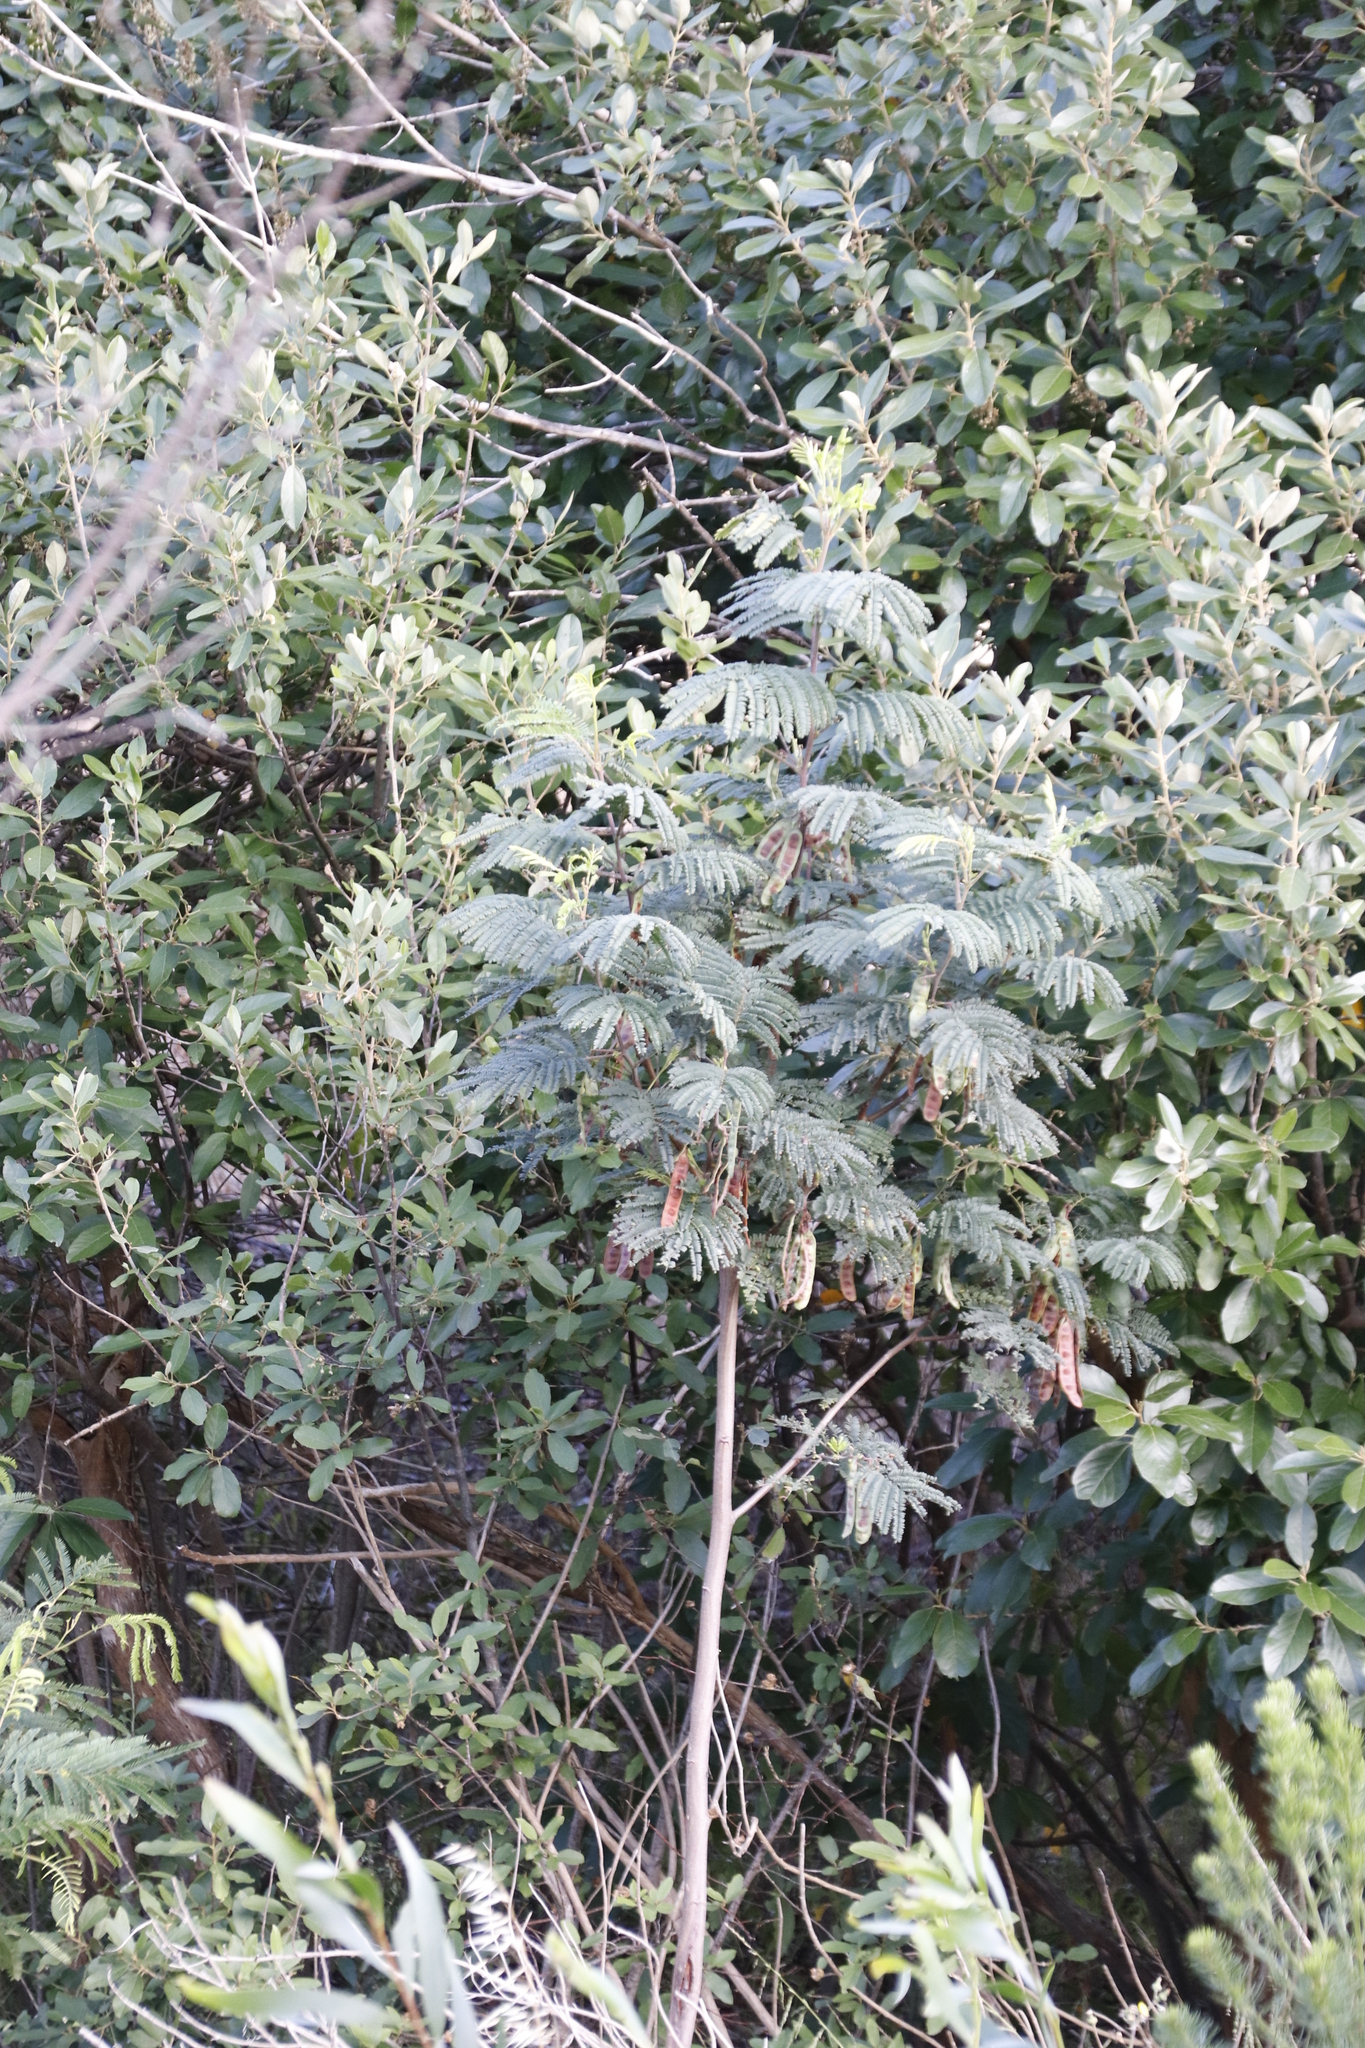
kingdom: Plantae
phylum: Tracheophyta
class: Magnoliopsida
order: Fabales
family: Fabaceae
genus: Paraserianthes
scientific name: Paraserianthes lophantha
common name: Plume albizia
